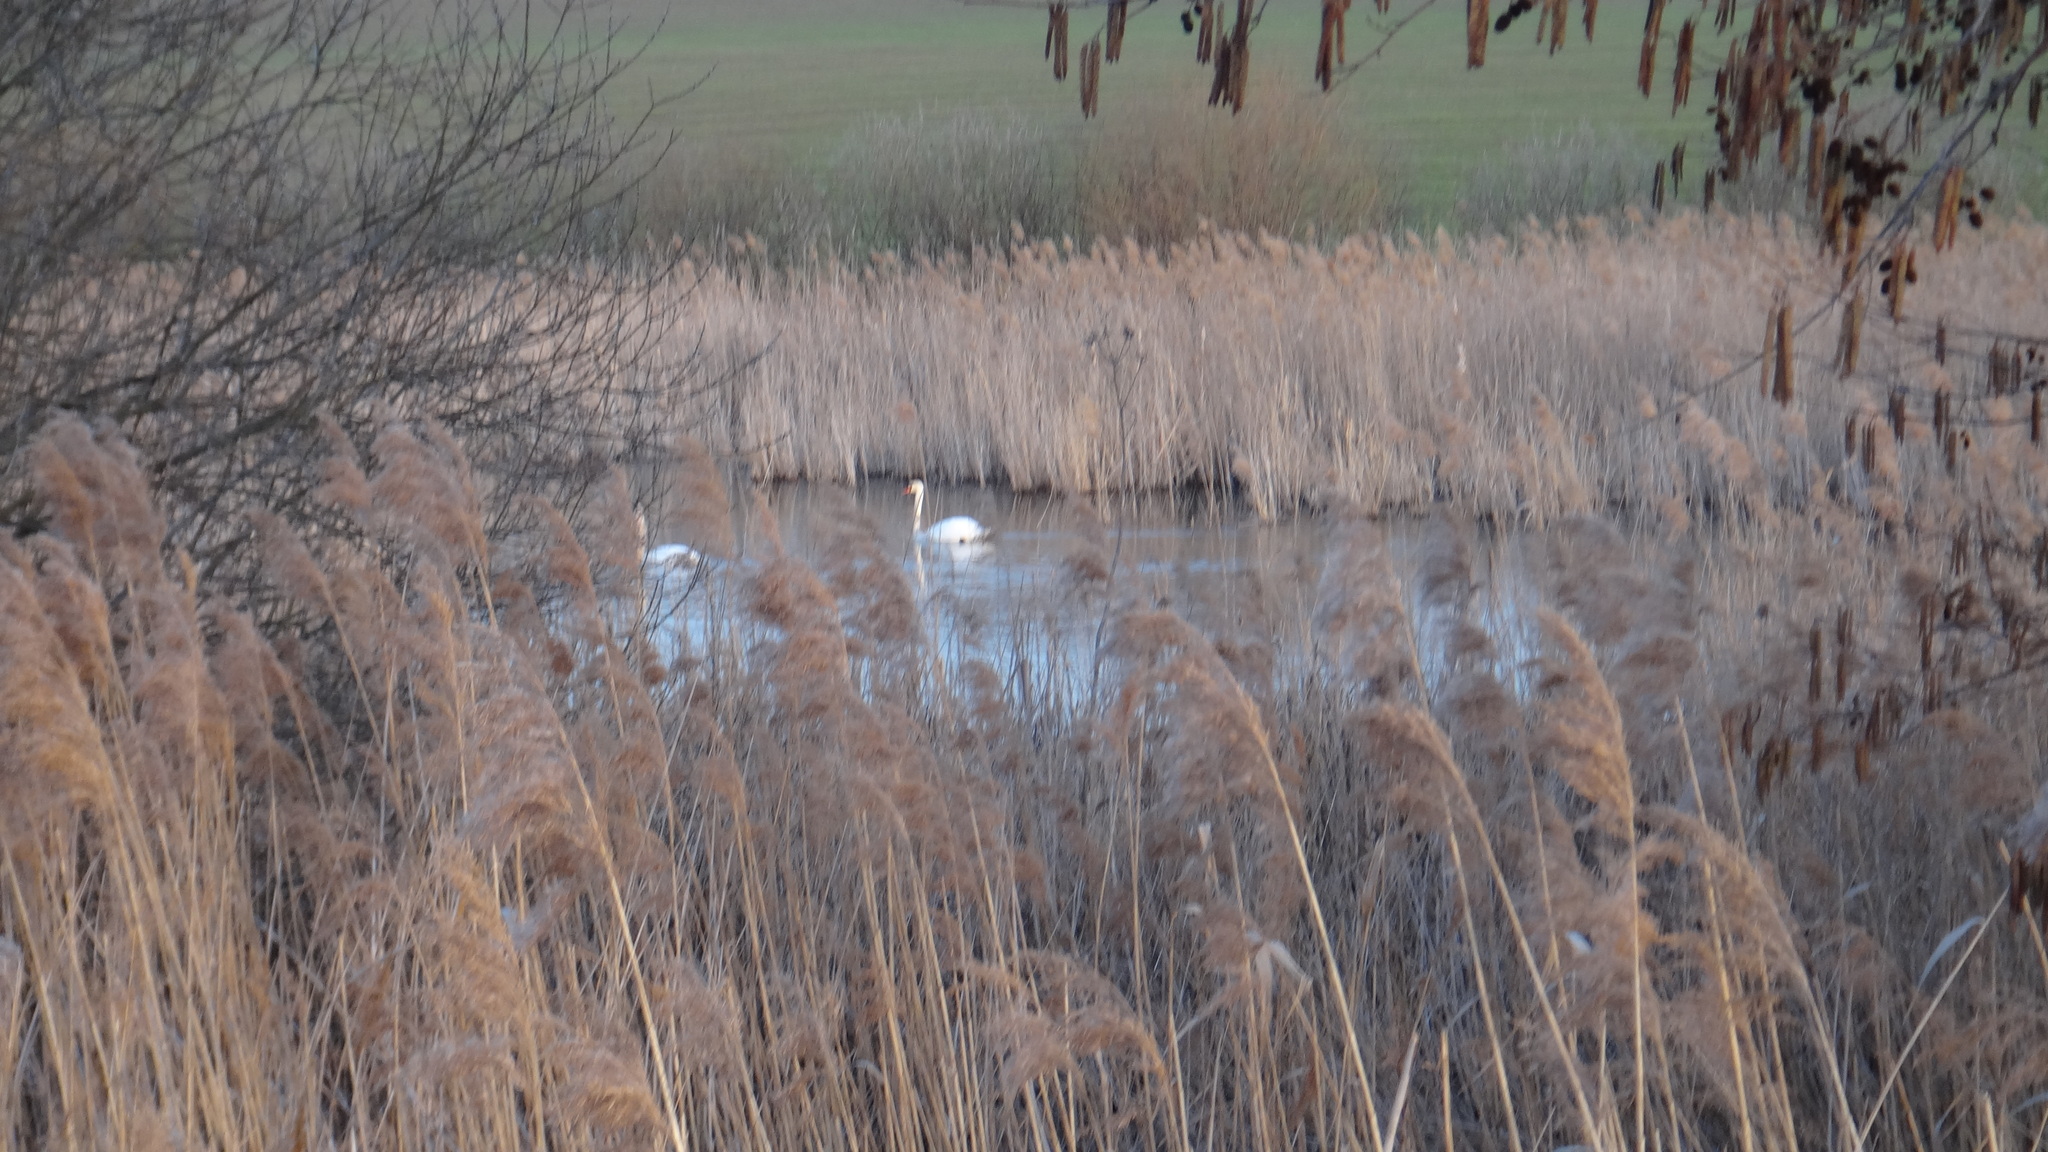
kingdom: Animalia
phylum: Chordata
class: Aves
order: Anseriformes
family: Anatidae
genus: Cygnus
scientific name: Cygnus olor
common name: Mute swan
